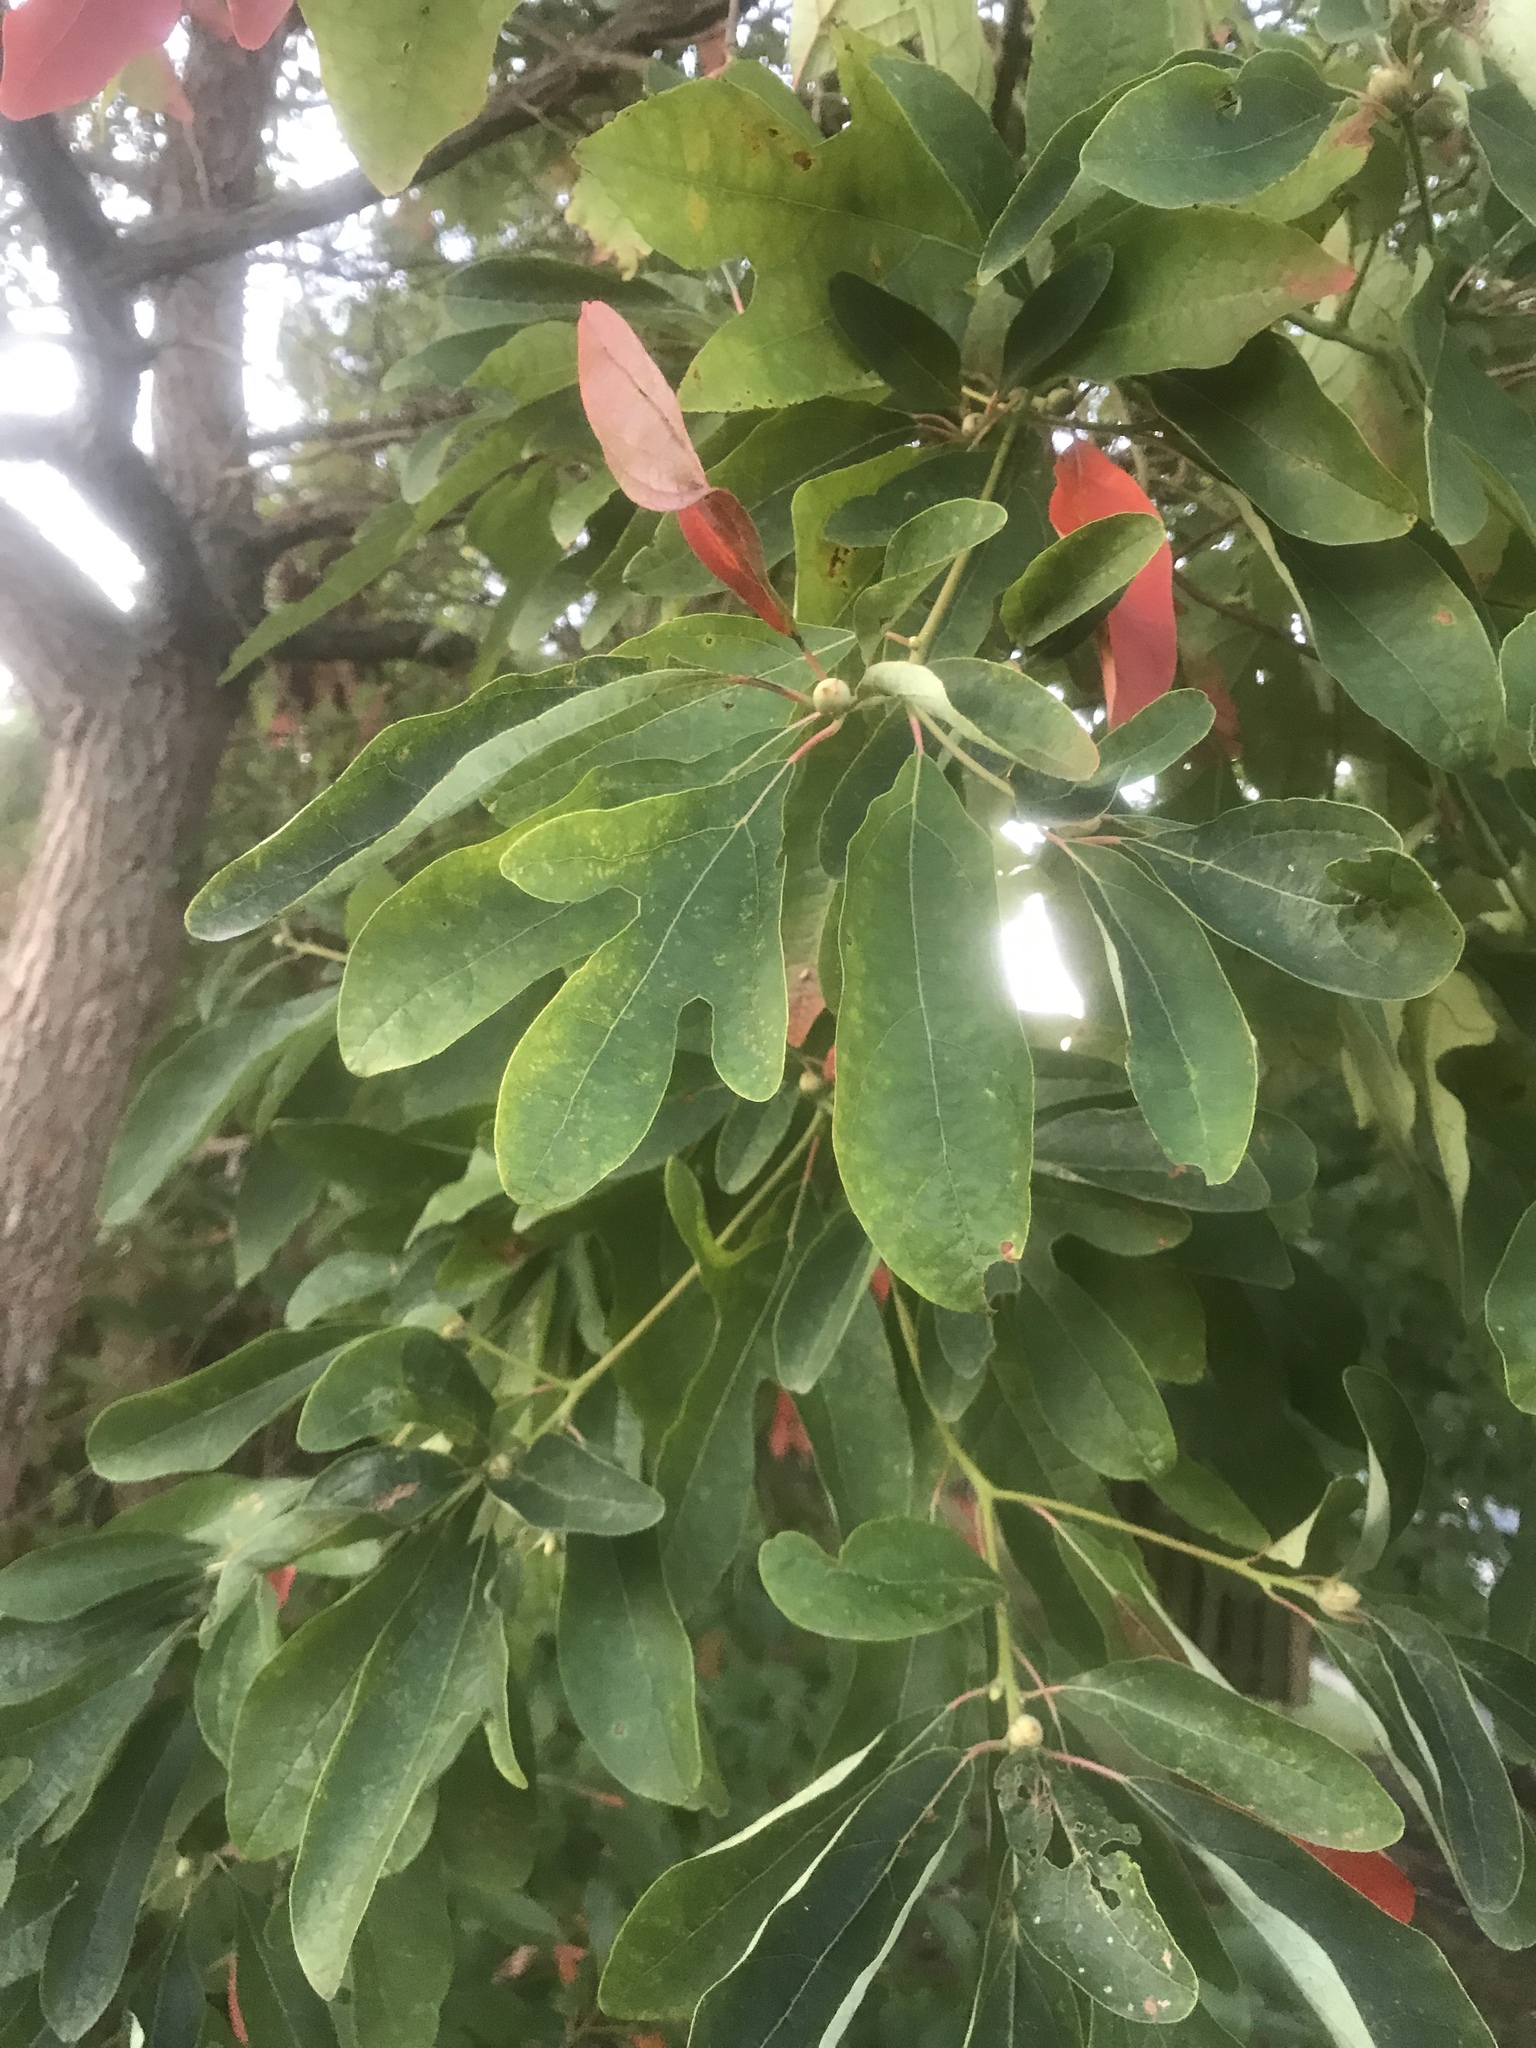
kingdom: Plantae
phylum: Tracheophyta
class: Magnoliopsida
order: Laurales
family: Lauraceae
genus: Sassafras
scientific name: Sassafras albidum
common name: Sassafras
